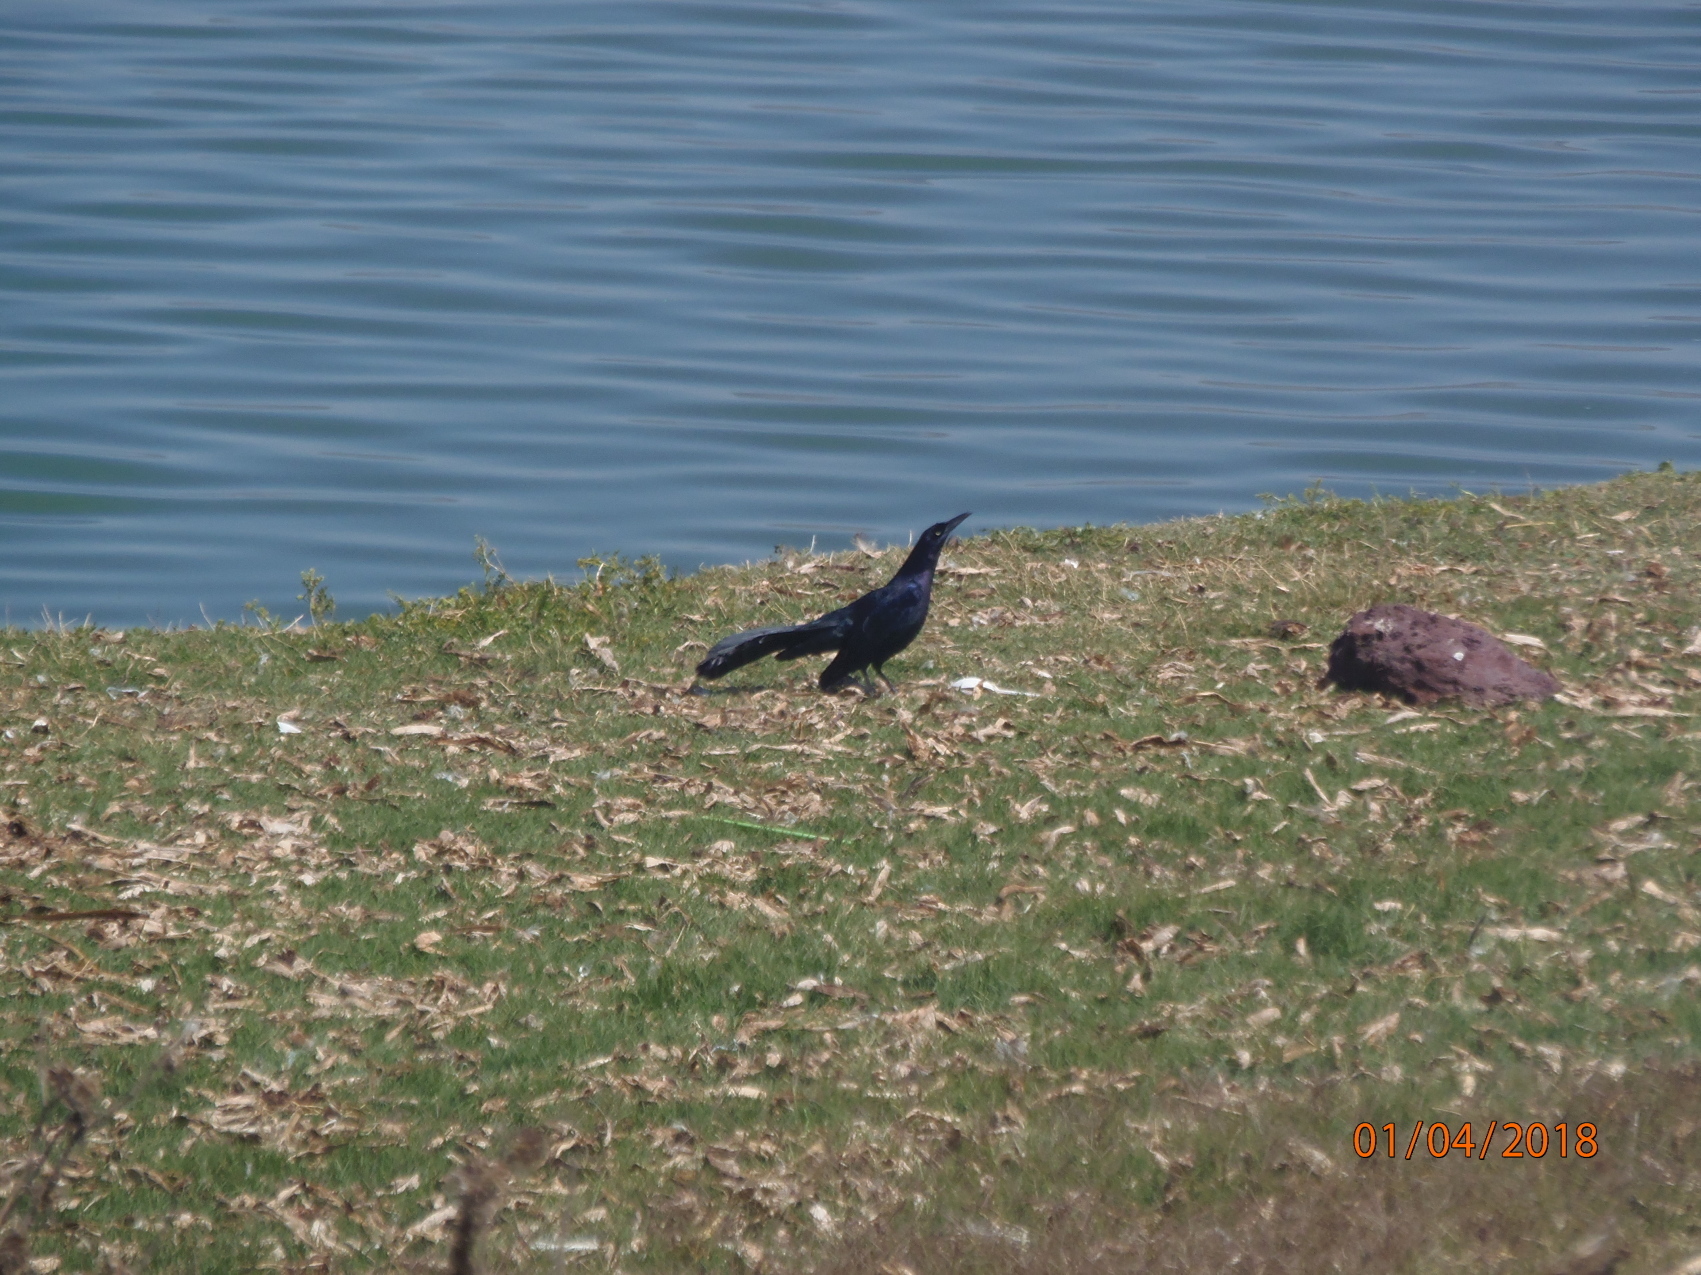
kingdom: Animalia
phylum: Chordata
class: Aves
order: Passeriformes
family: Icteridae
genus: Quiscalus
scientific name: Quiscalus mexicanus
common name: Great-tailed grackle
